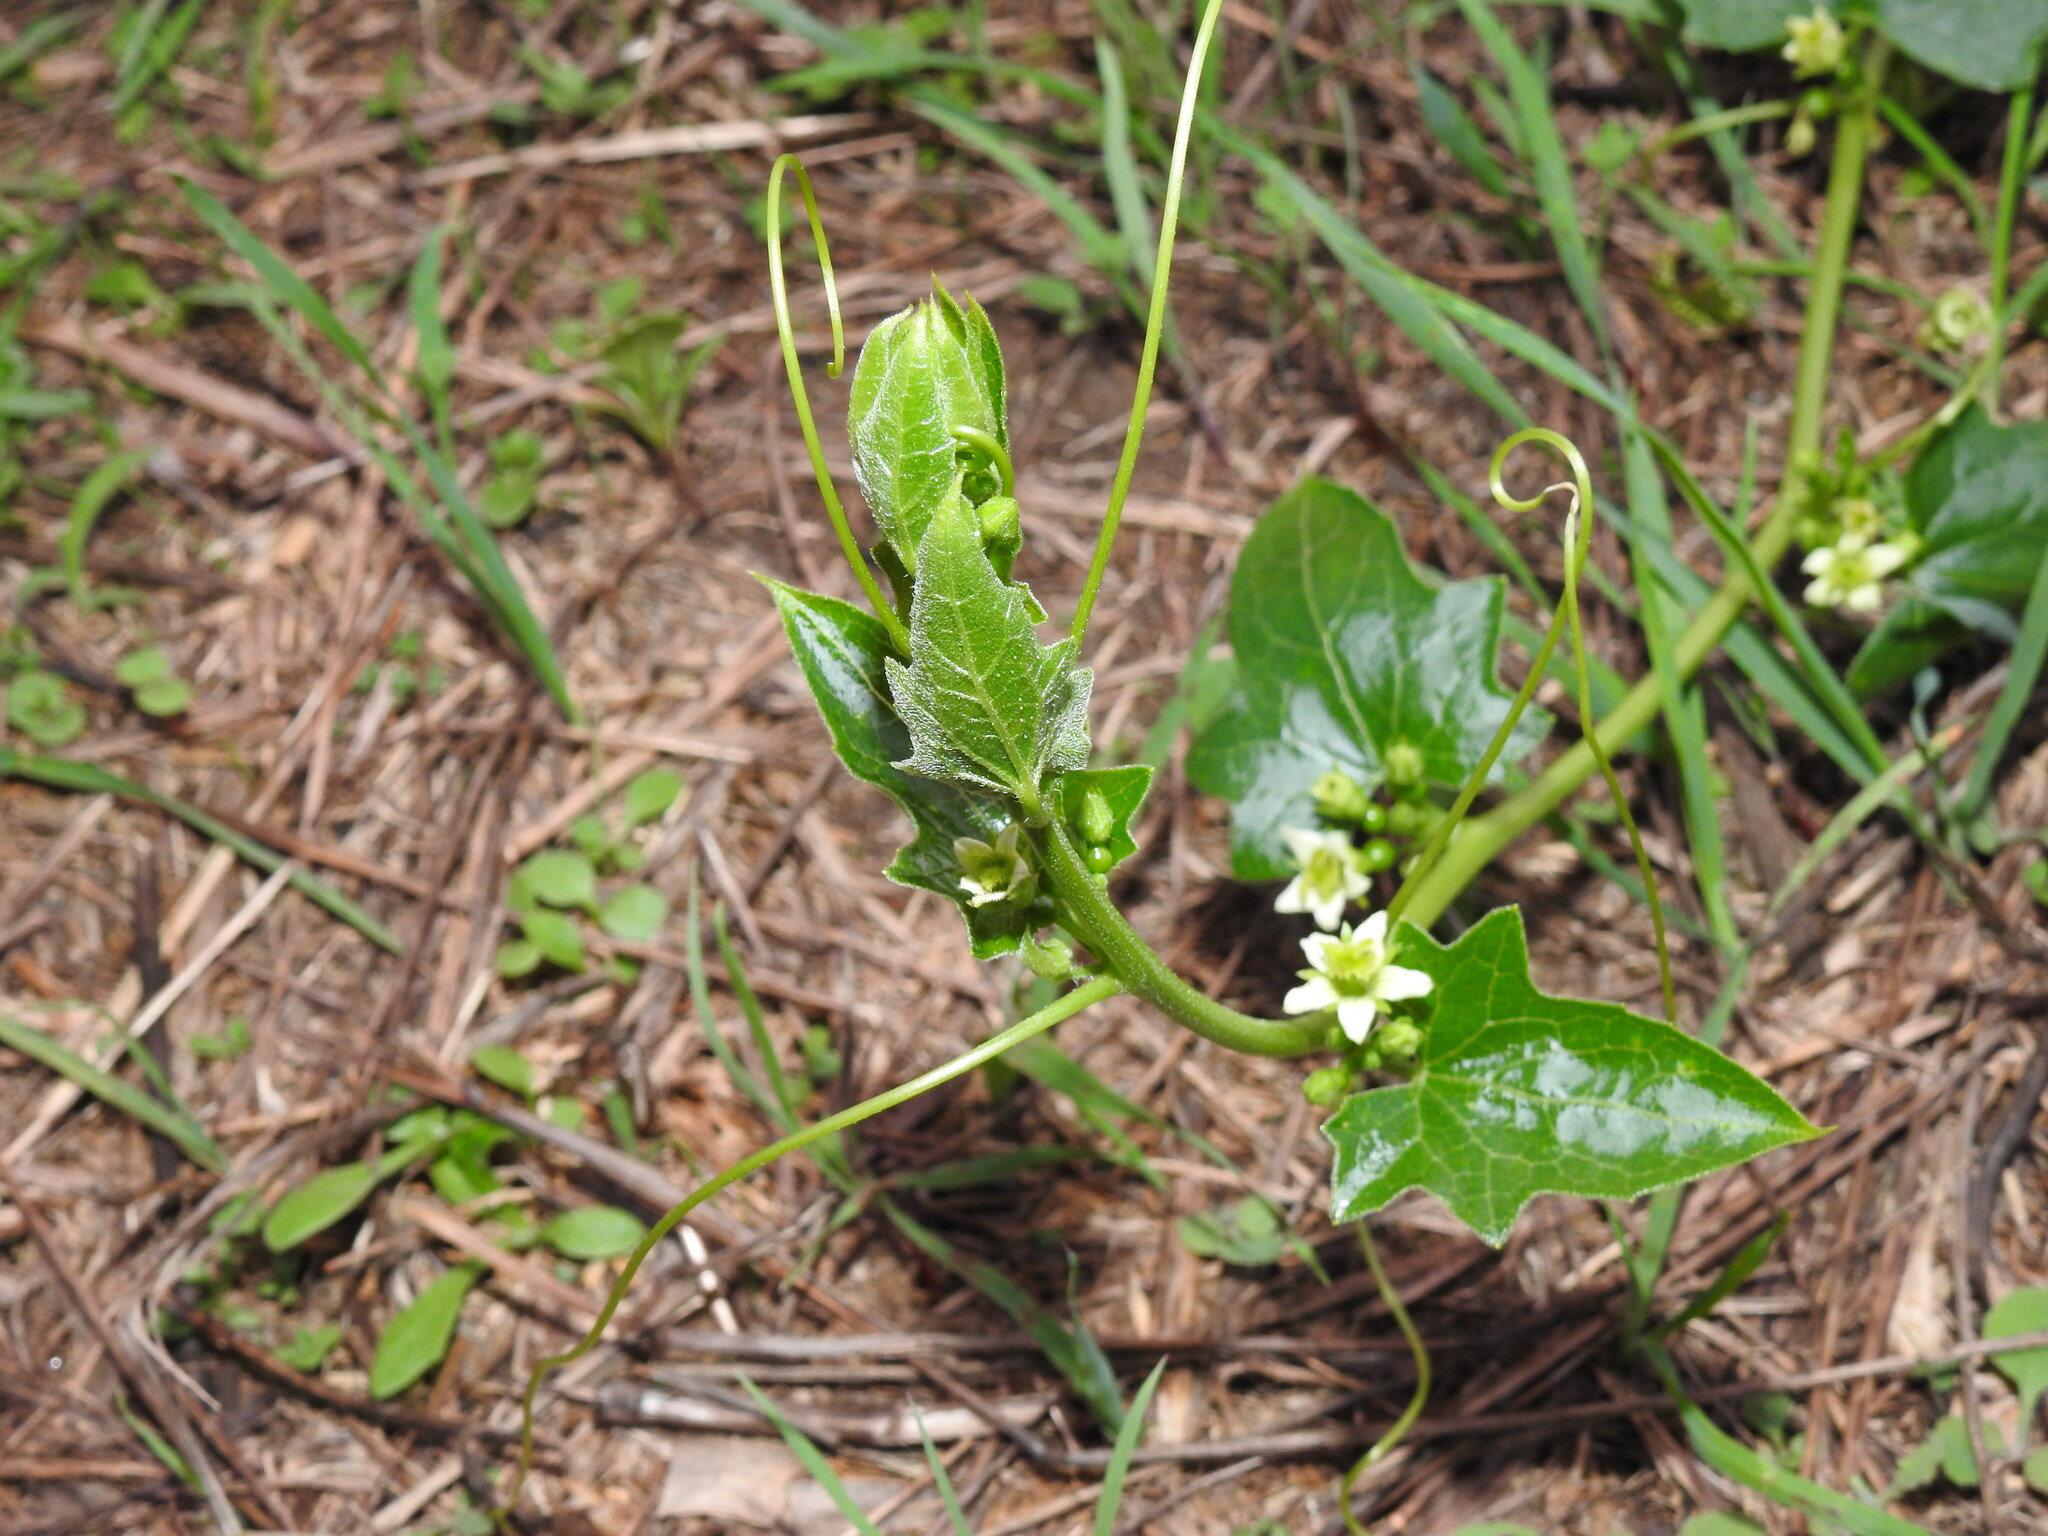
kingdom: Plantae
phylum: Tracheophyta
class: Magnoliopsida
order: Cucurbitales
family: Cucurbitaceae
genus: Bryonia
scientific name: Bryonia dioica
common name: White bryony
